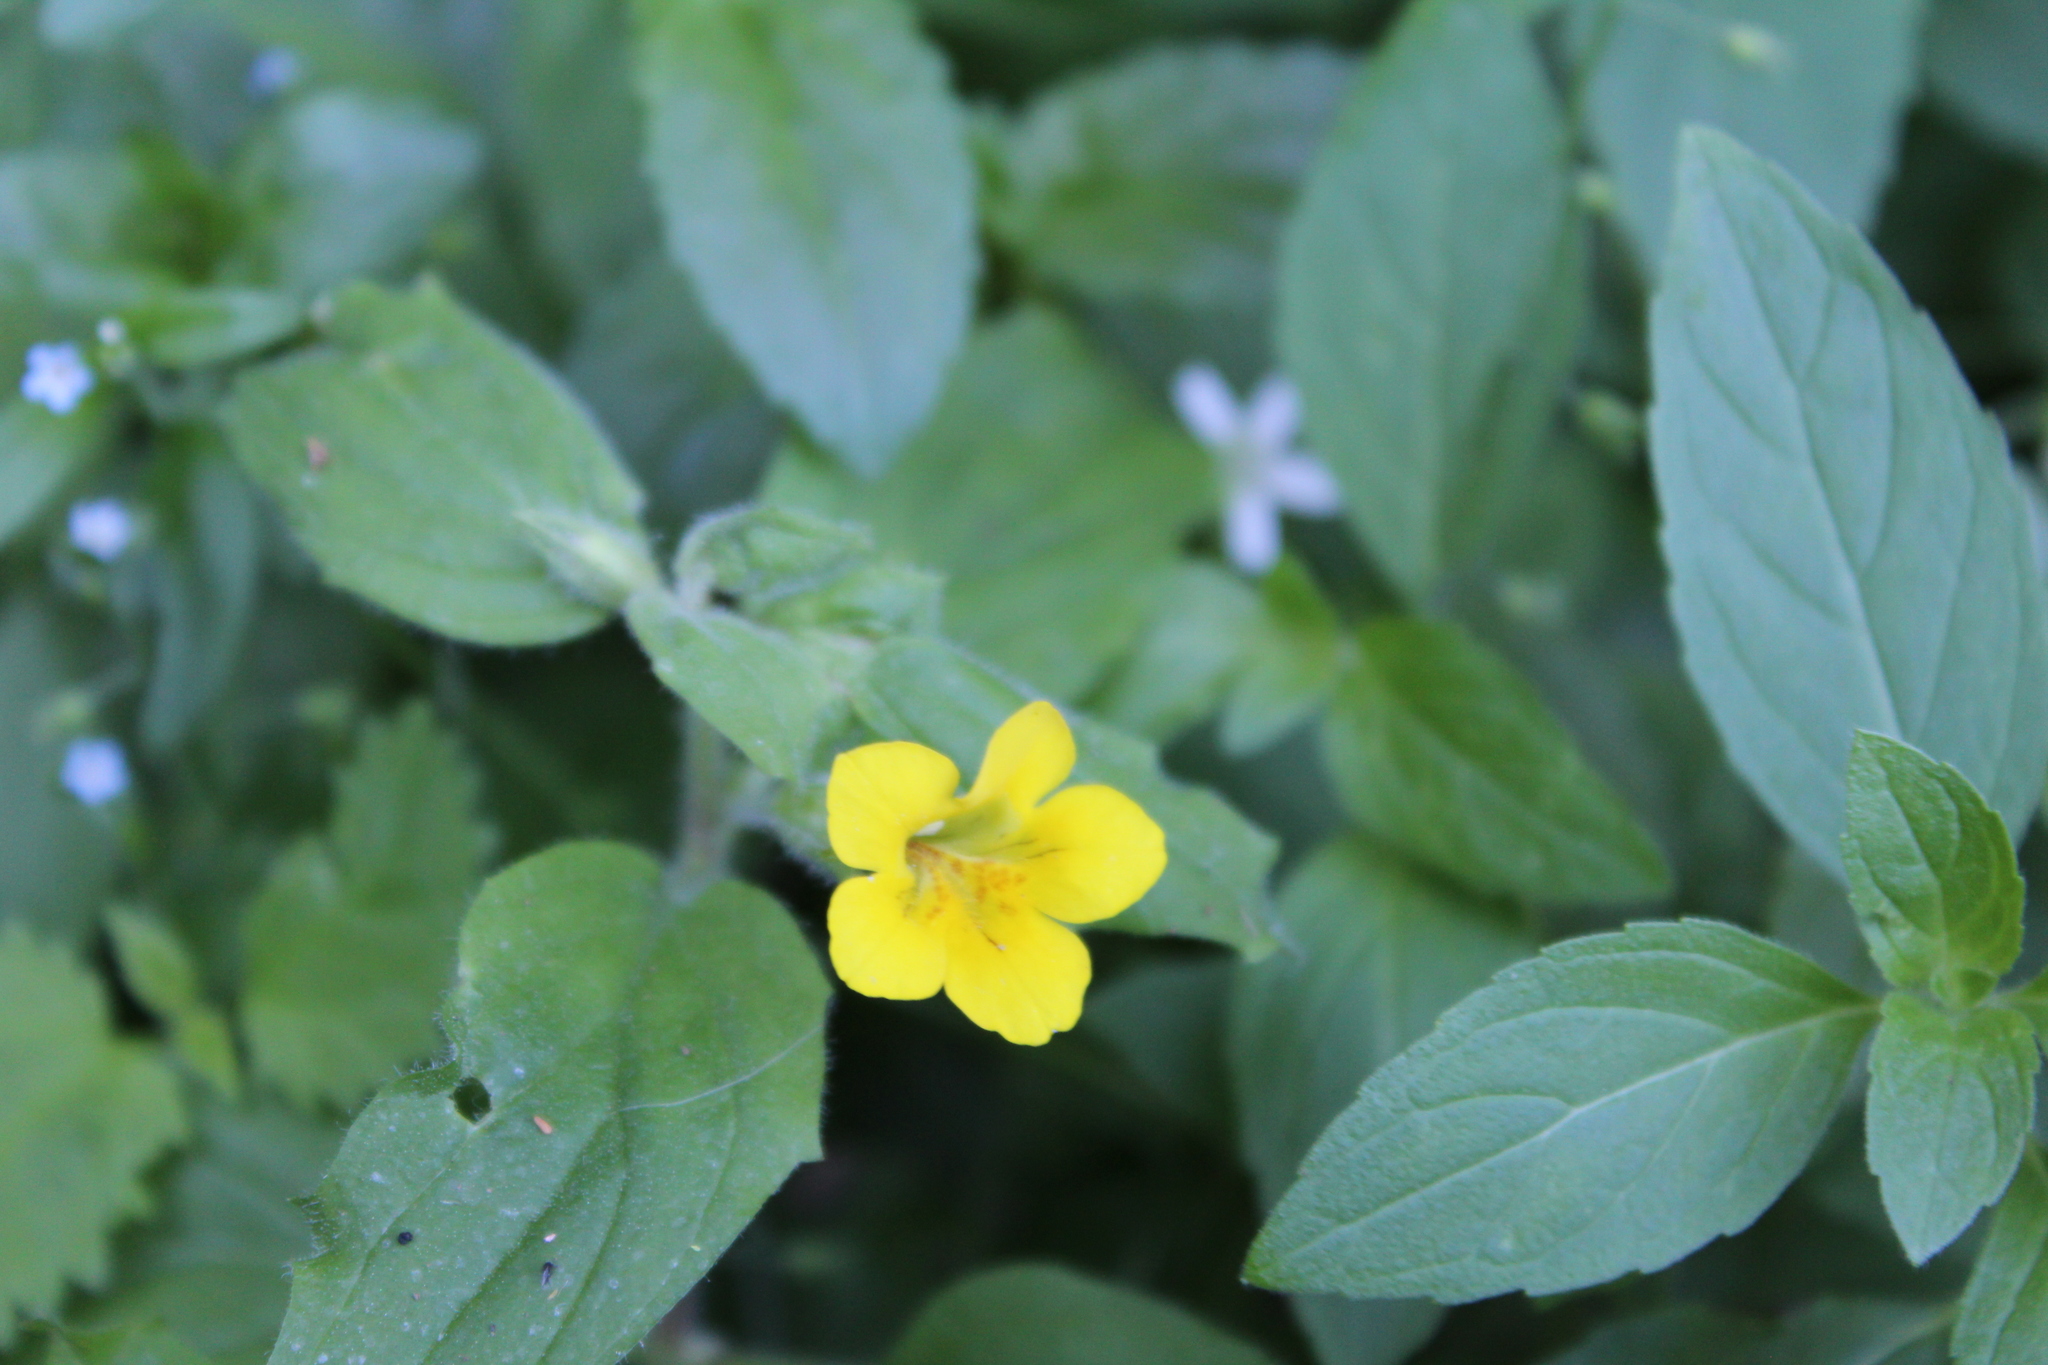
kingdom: Plantae
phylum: Tracheophyta
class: Magnoliopsida
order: Lamiales
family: Phrymaceae
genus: Erythranthe
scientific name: Erythranthe moschata
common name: Muskflower
